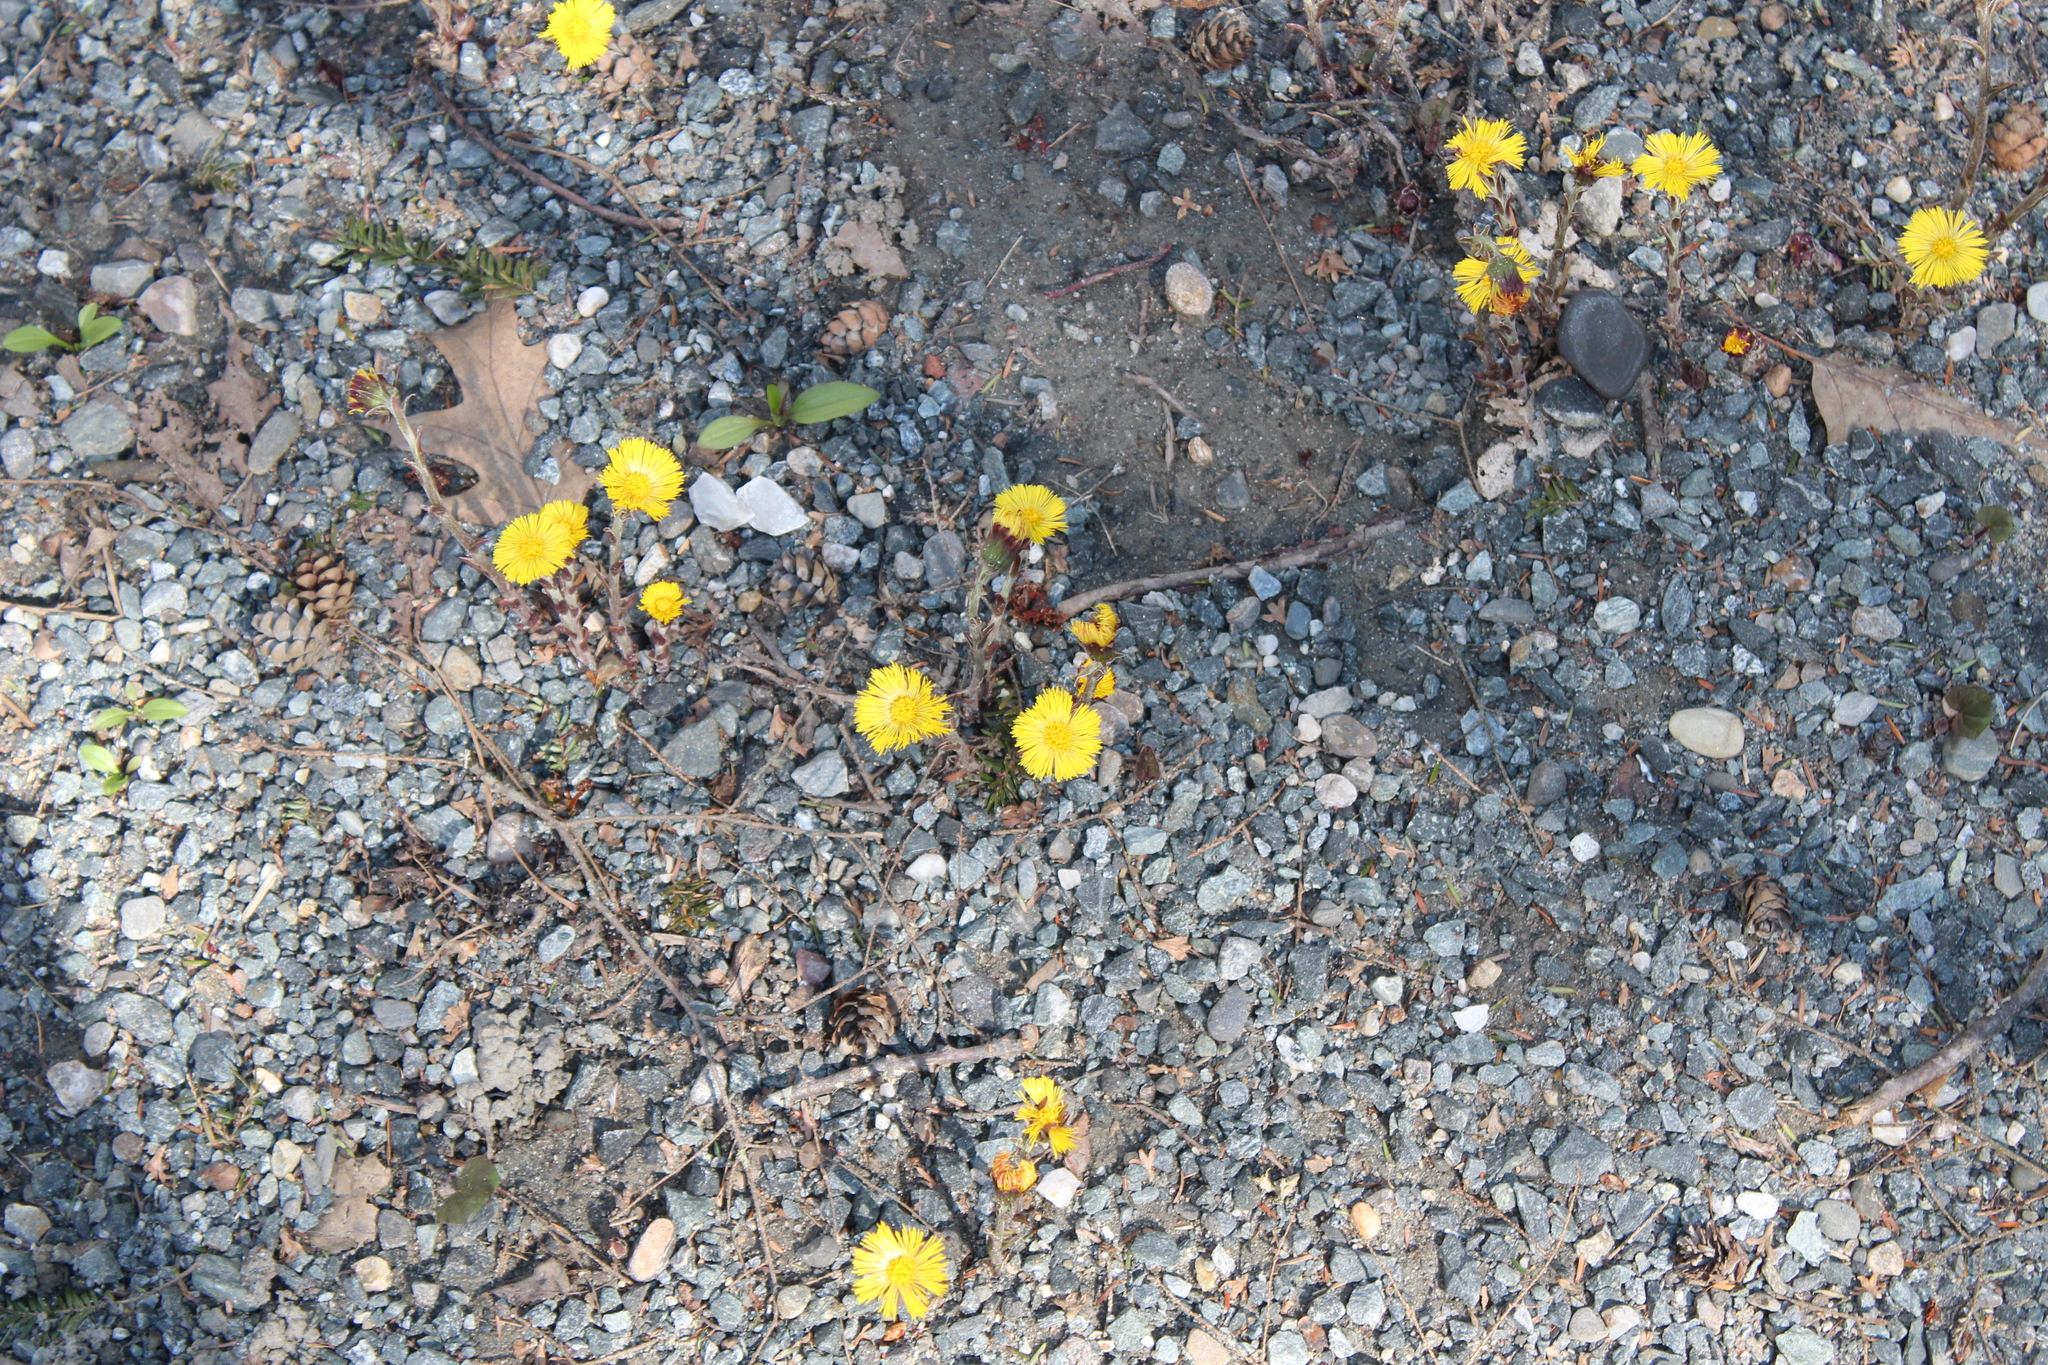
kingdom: Plantae
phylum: Tracheophyta
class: Magnoliopsida
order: Asterales
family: Asteraceae
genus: Tussilago
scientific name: Tussilago farfara
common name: Coltsfoot
